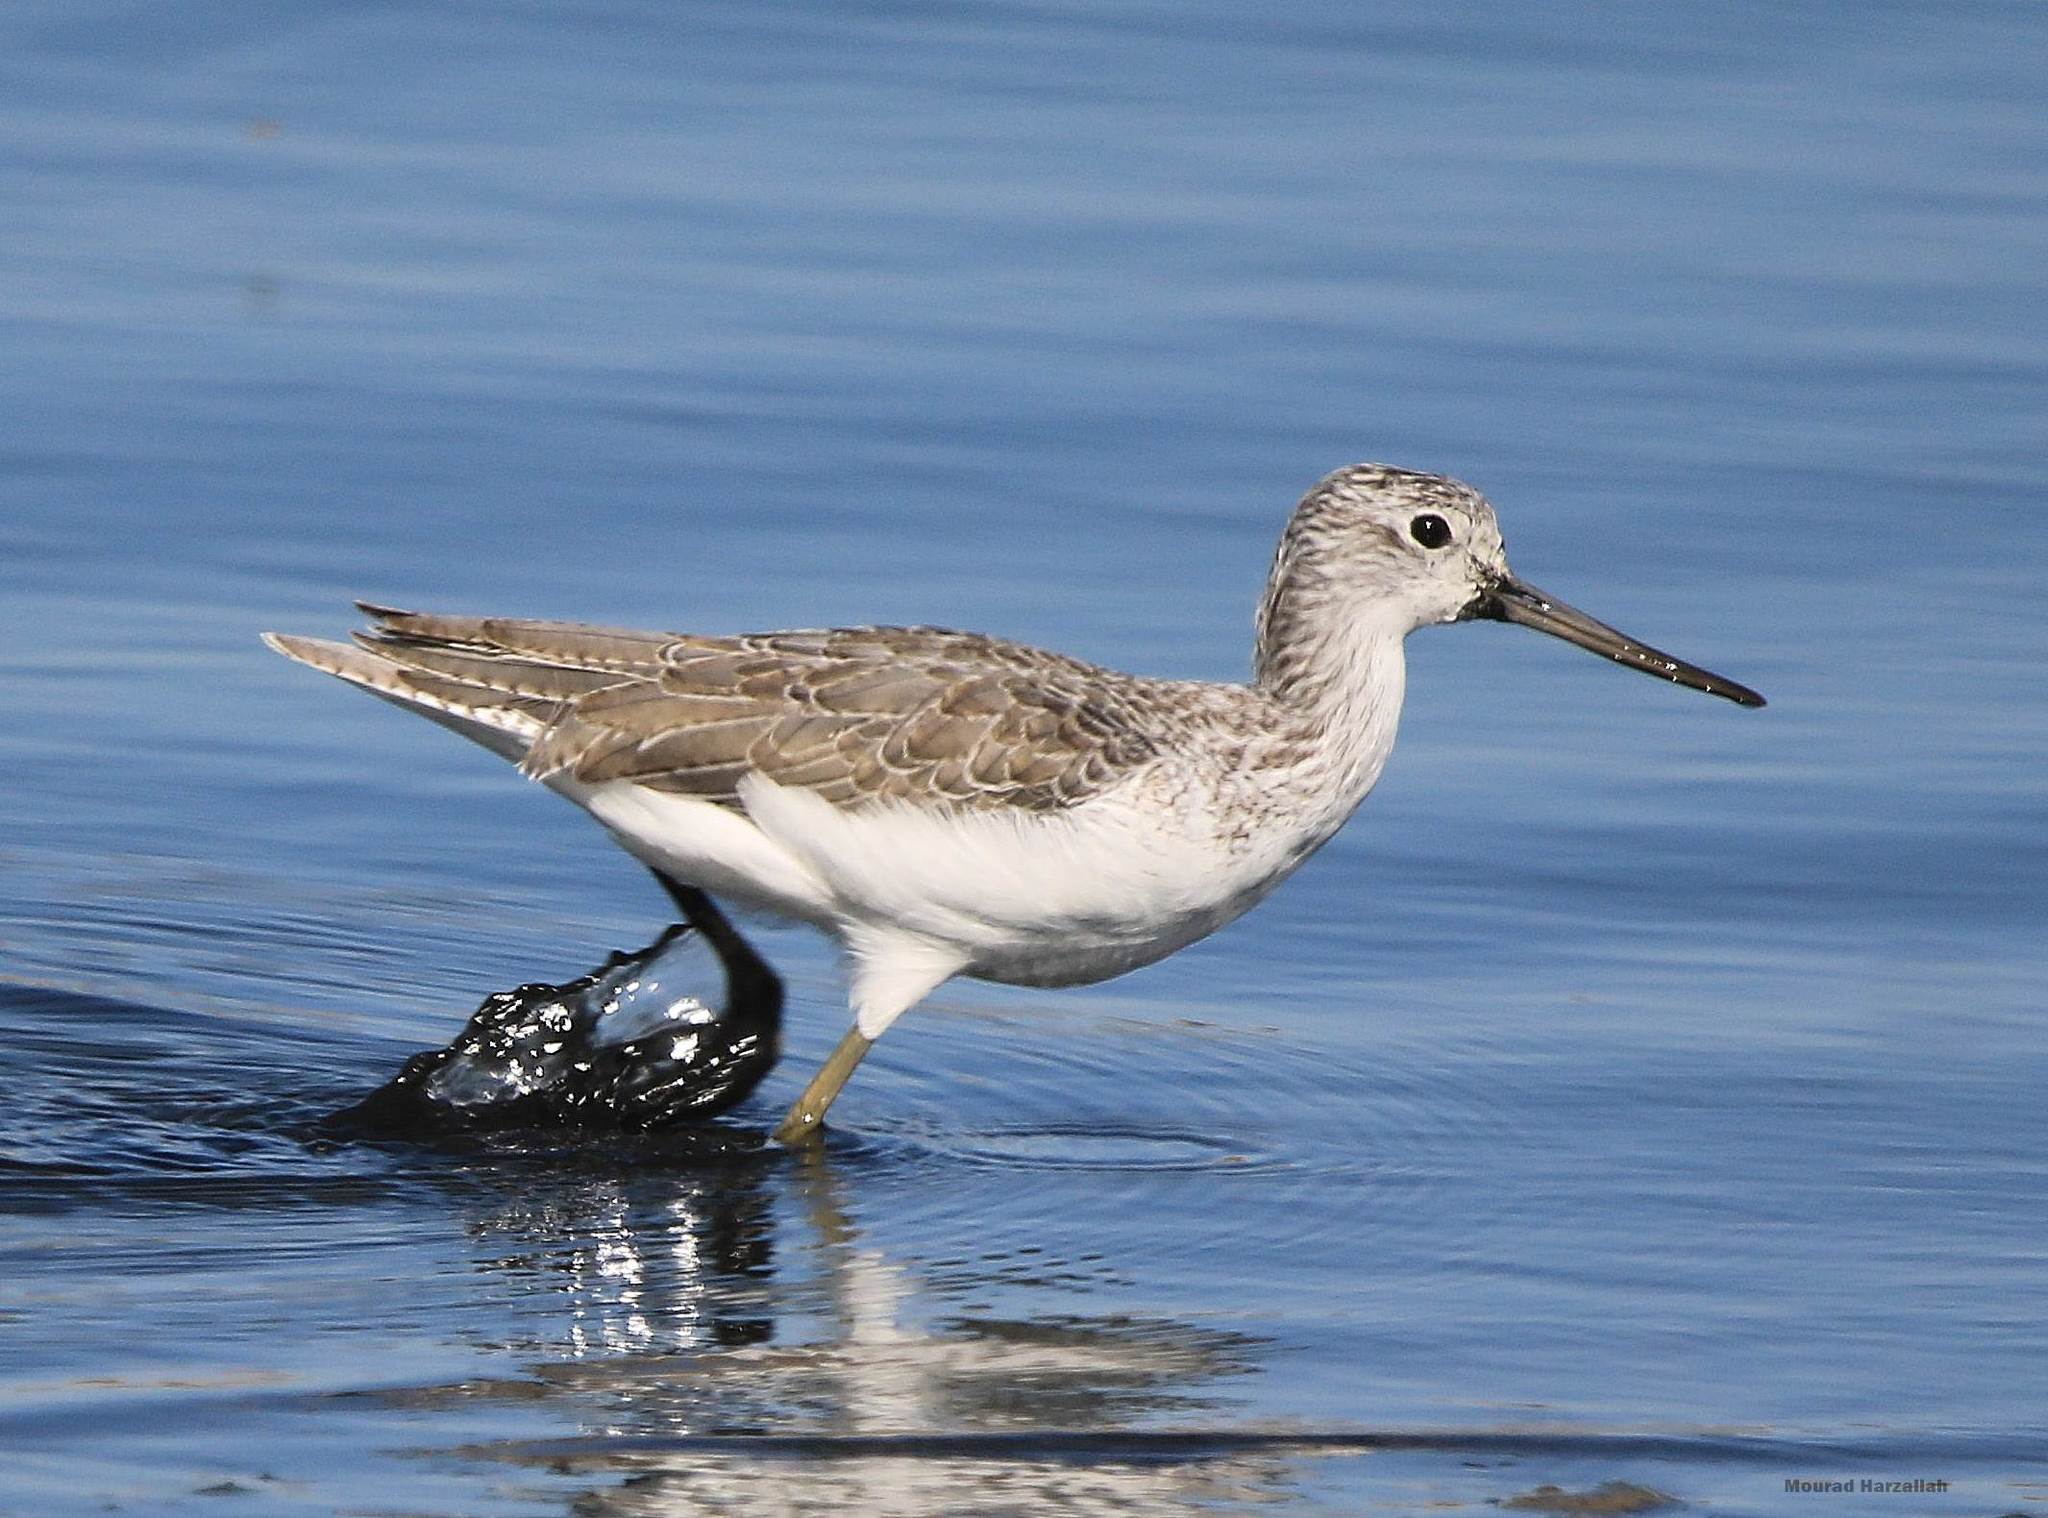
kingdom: Animalia
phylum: Chordata
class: Aves
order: Charadriiformes
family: Scolopacidae
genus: Tringa
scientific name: Tringa nebularia
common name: Common greenshank
